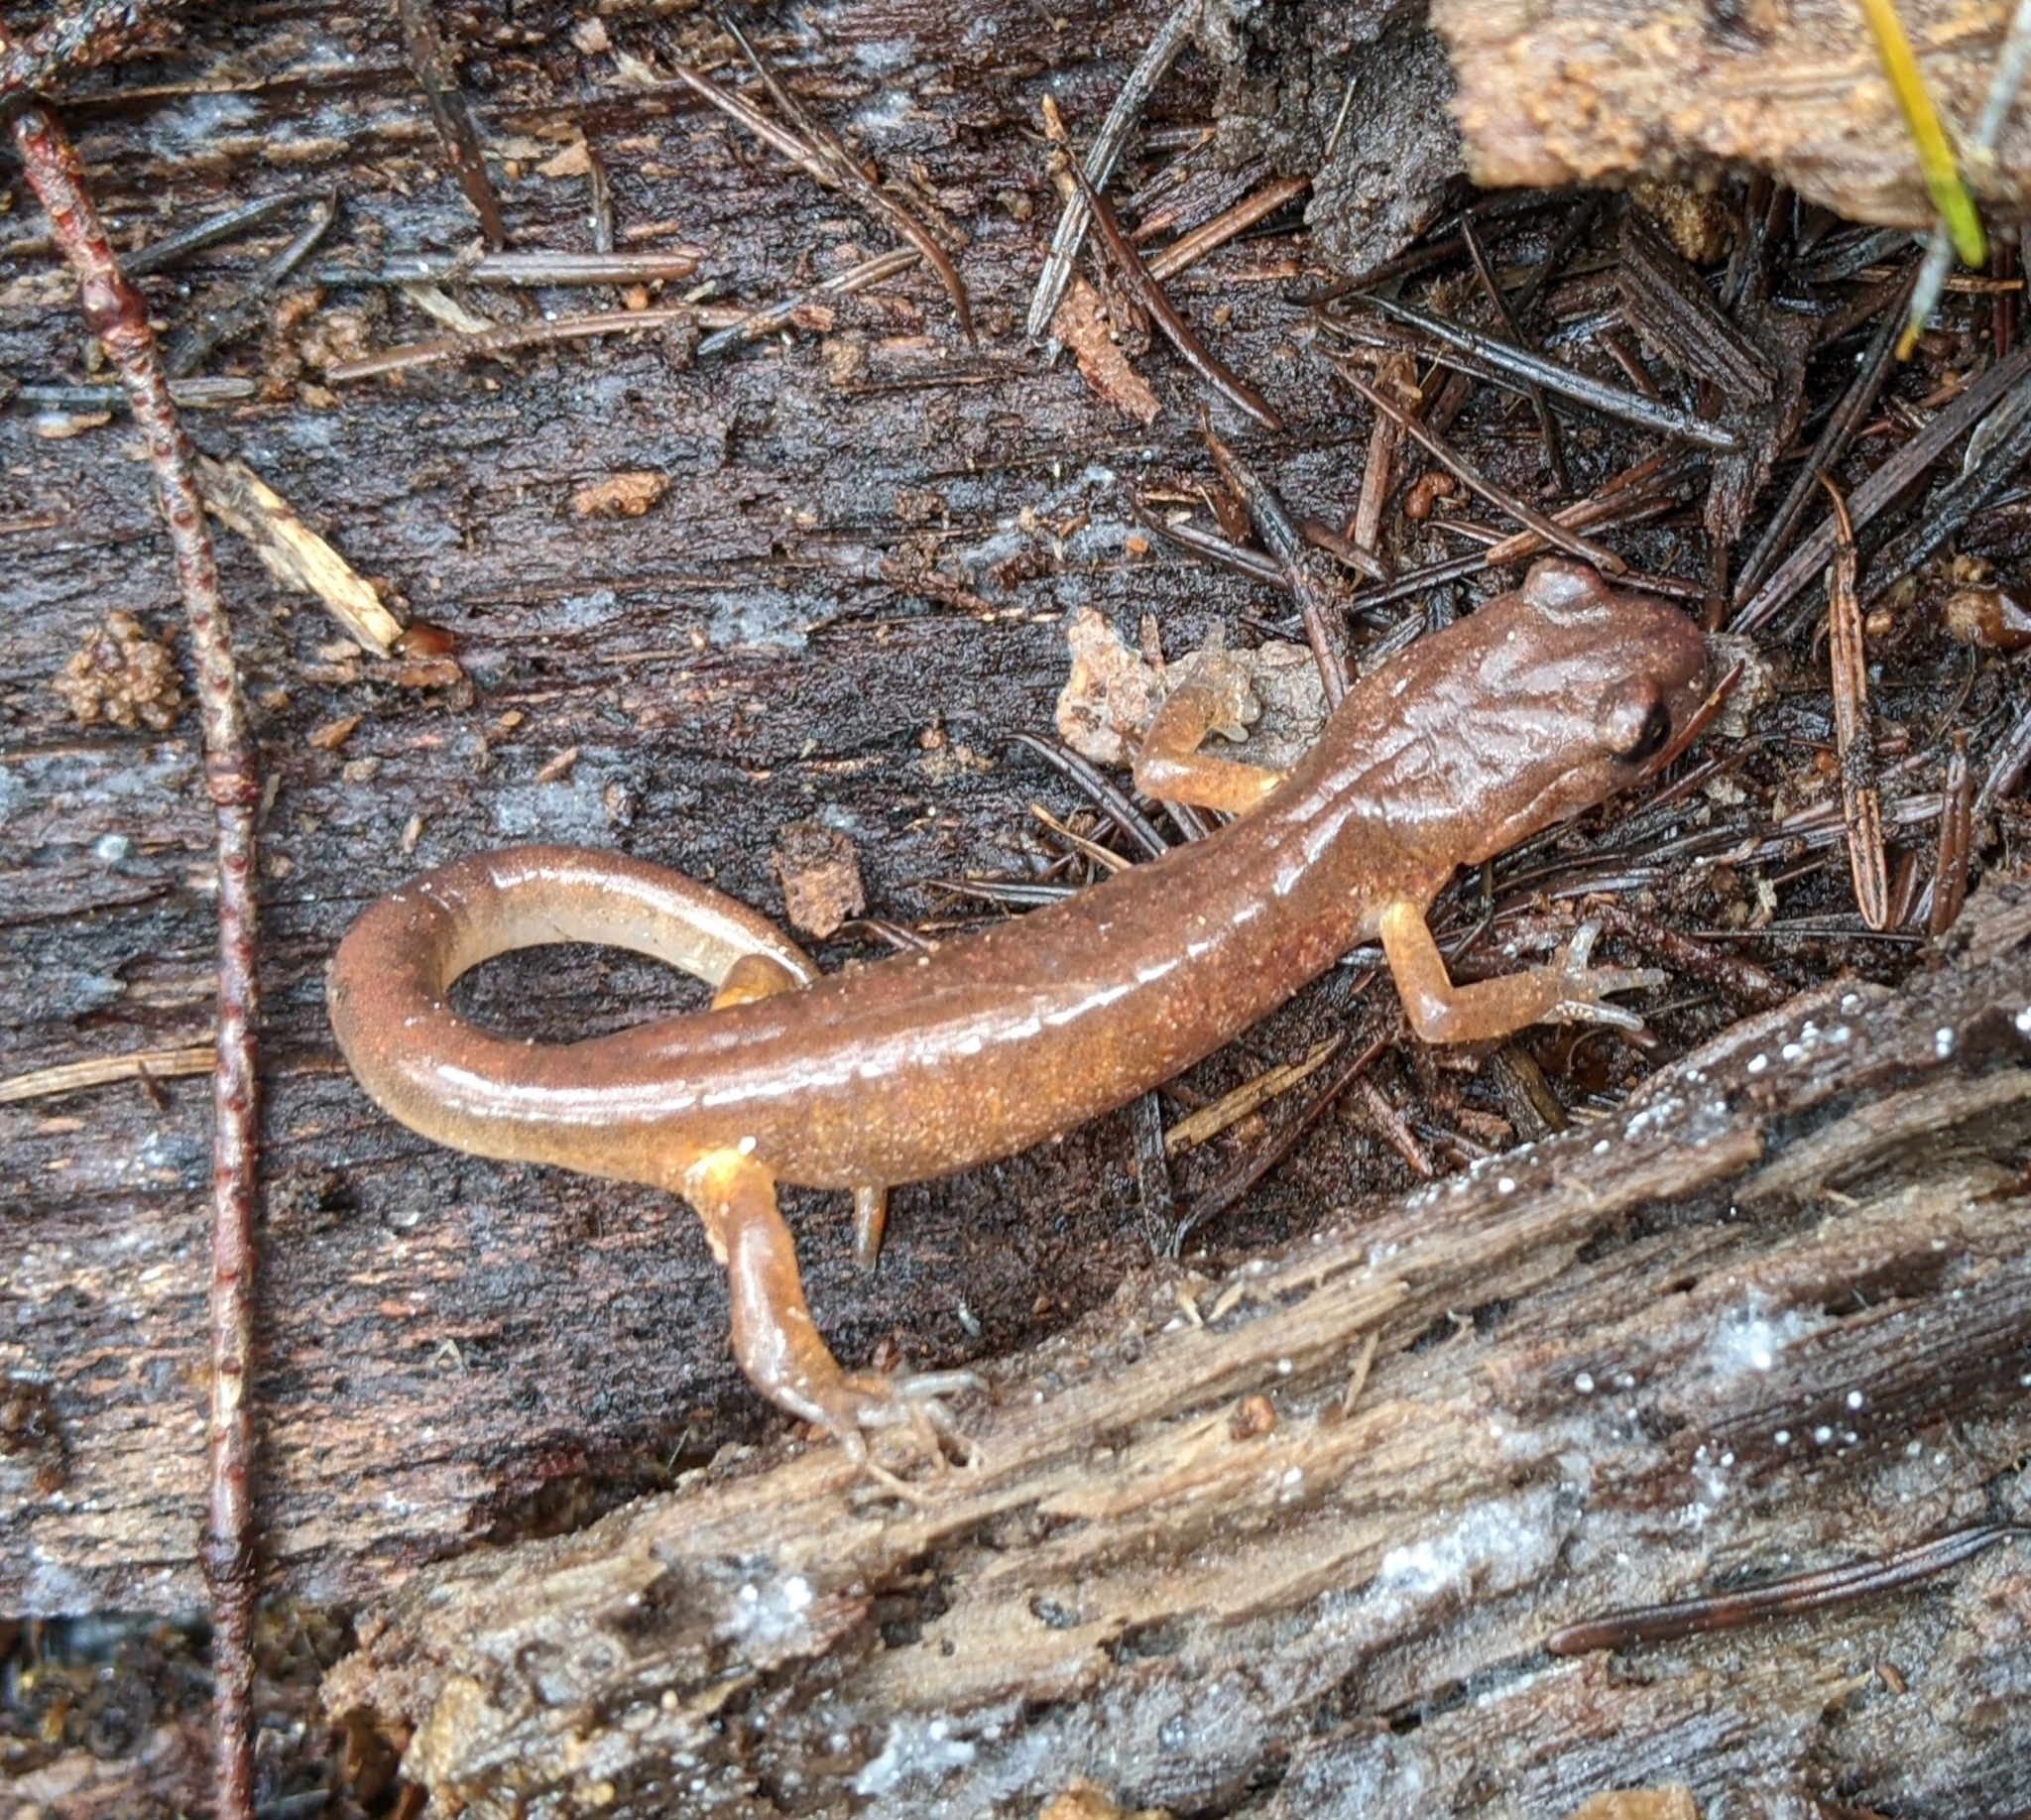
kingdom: Animalia
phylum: Chordata
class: Amphibia
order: Caudata
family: Plethodontidae
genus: Ensatina
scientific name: Ensatina eschscholtzii
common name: Ensatina
